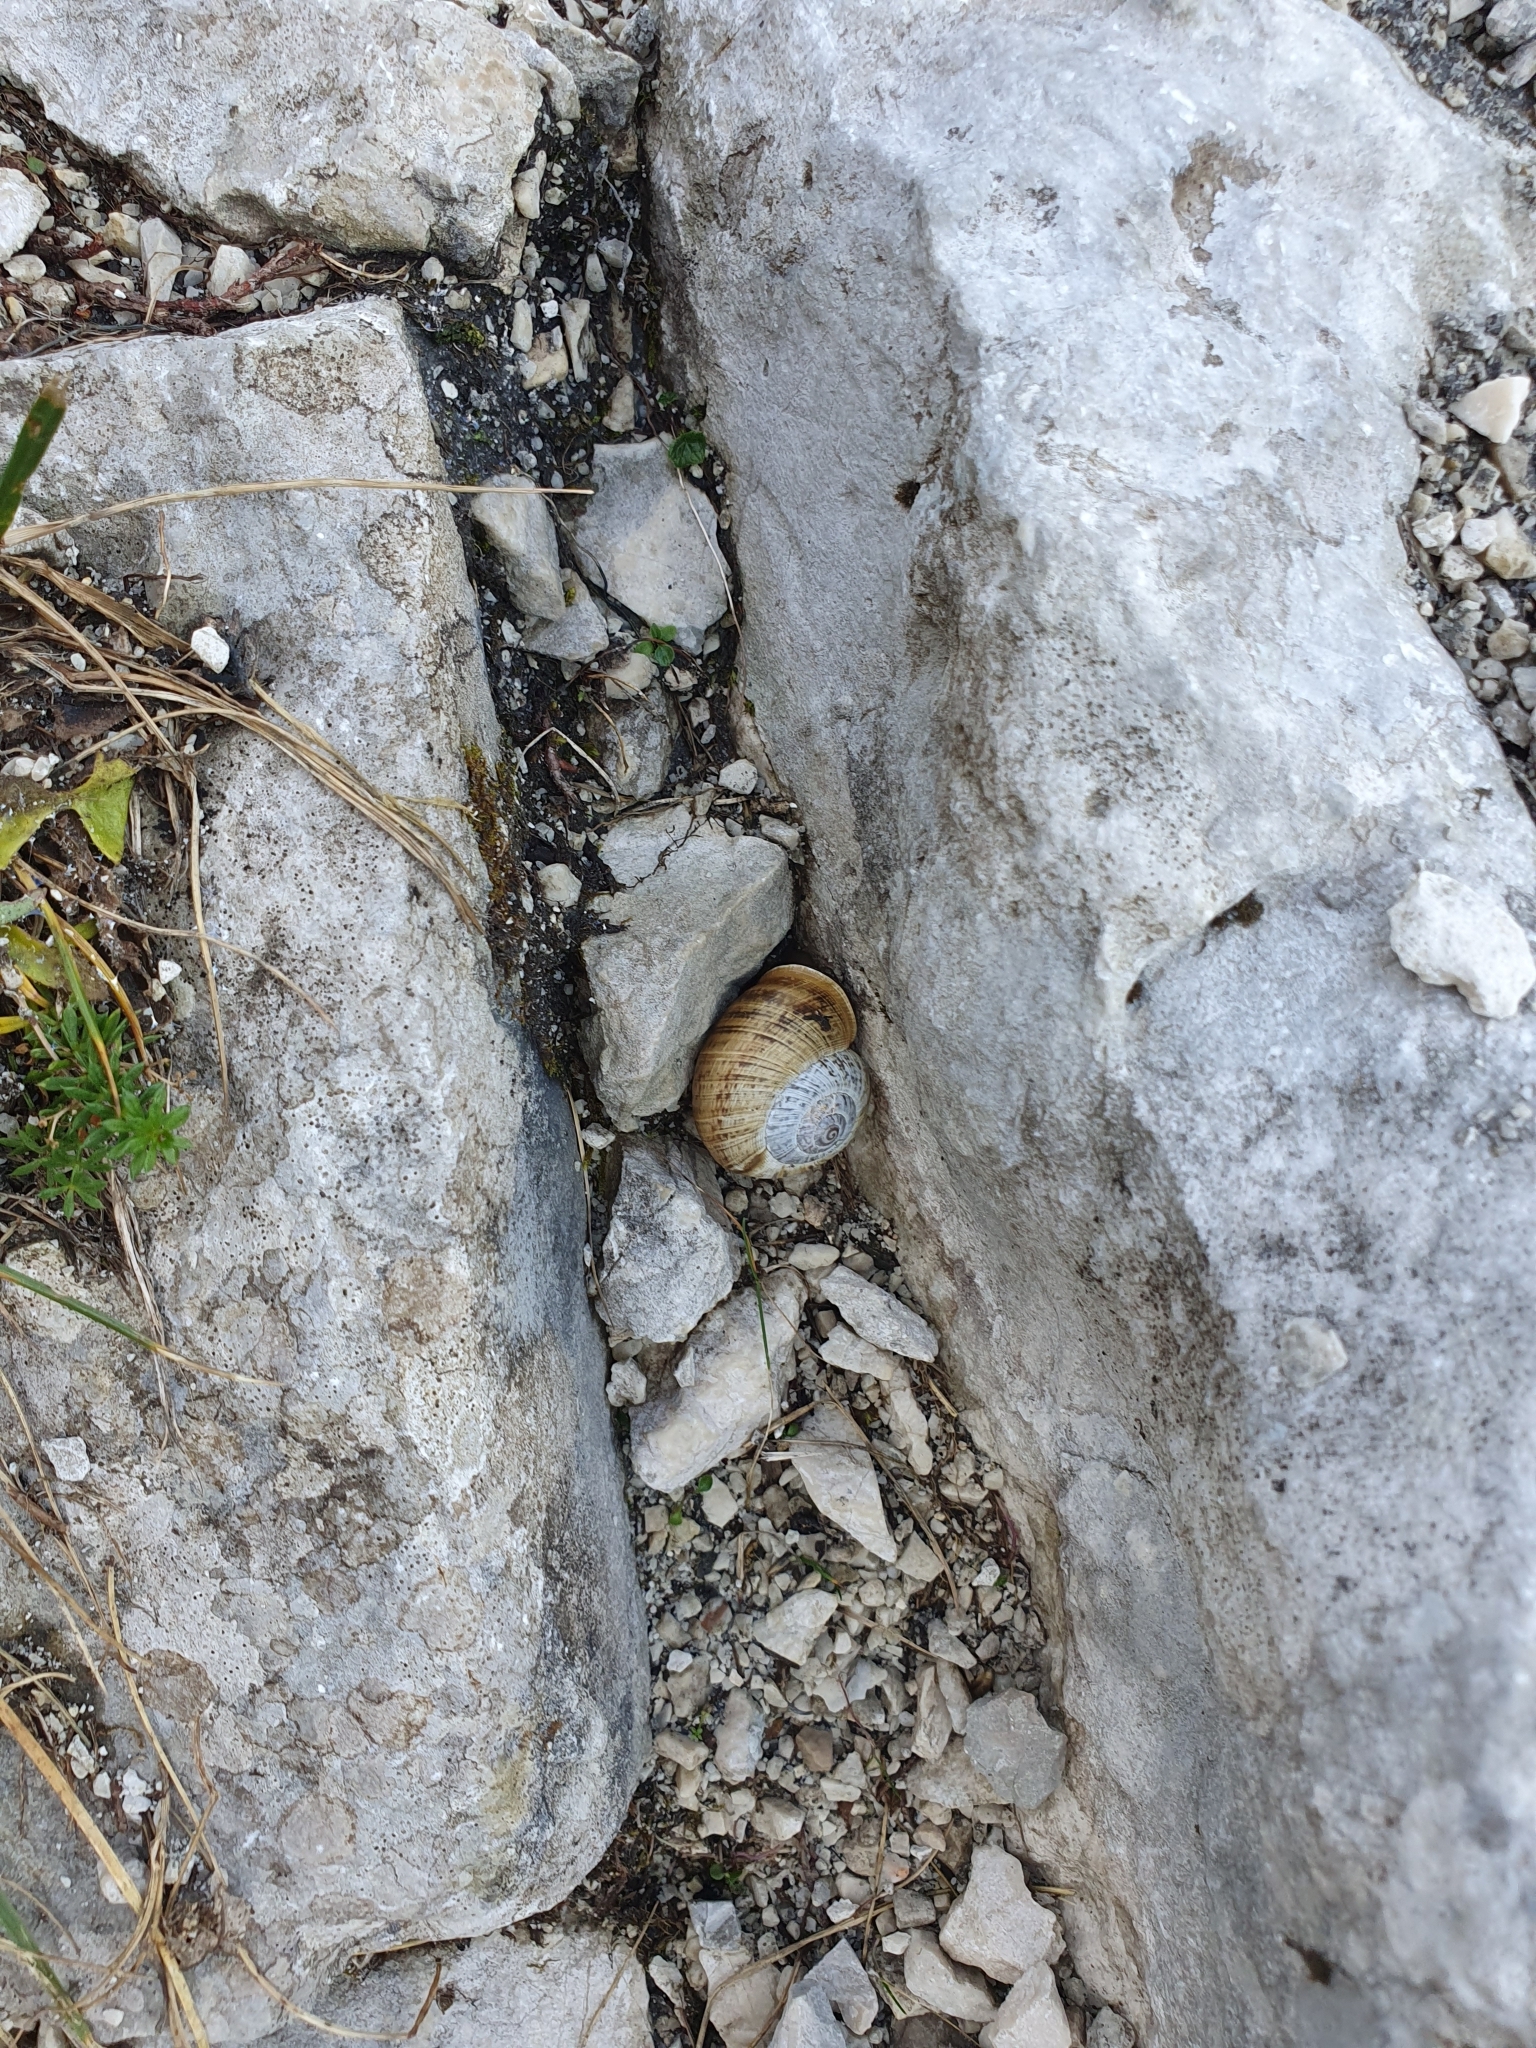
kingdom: Animalia
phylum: Mollusca
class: Gastropoda
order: Stylommatophora
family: Helicidae
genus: Arianta
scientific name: Arianta arbustorum
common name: Copse snail
